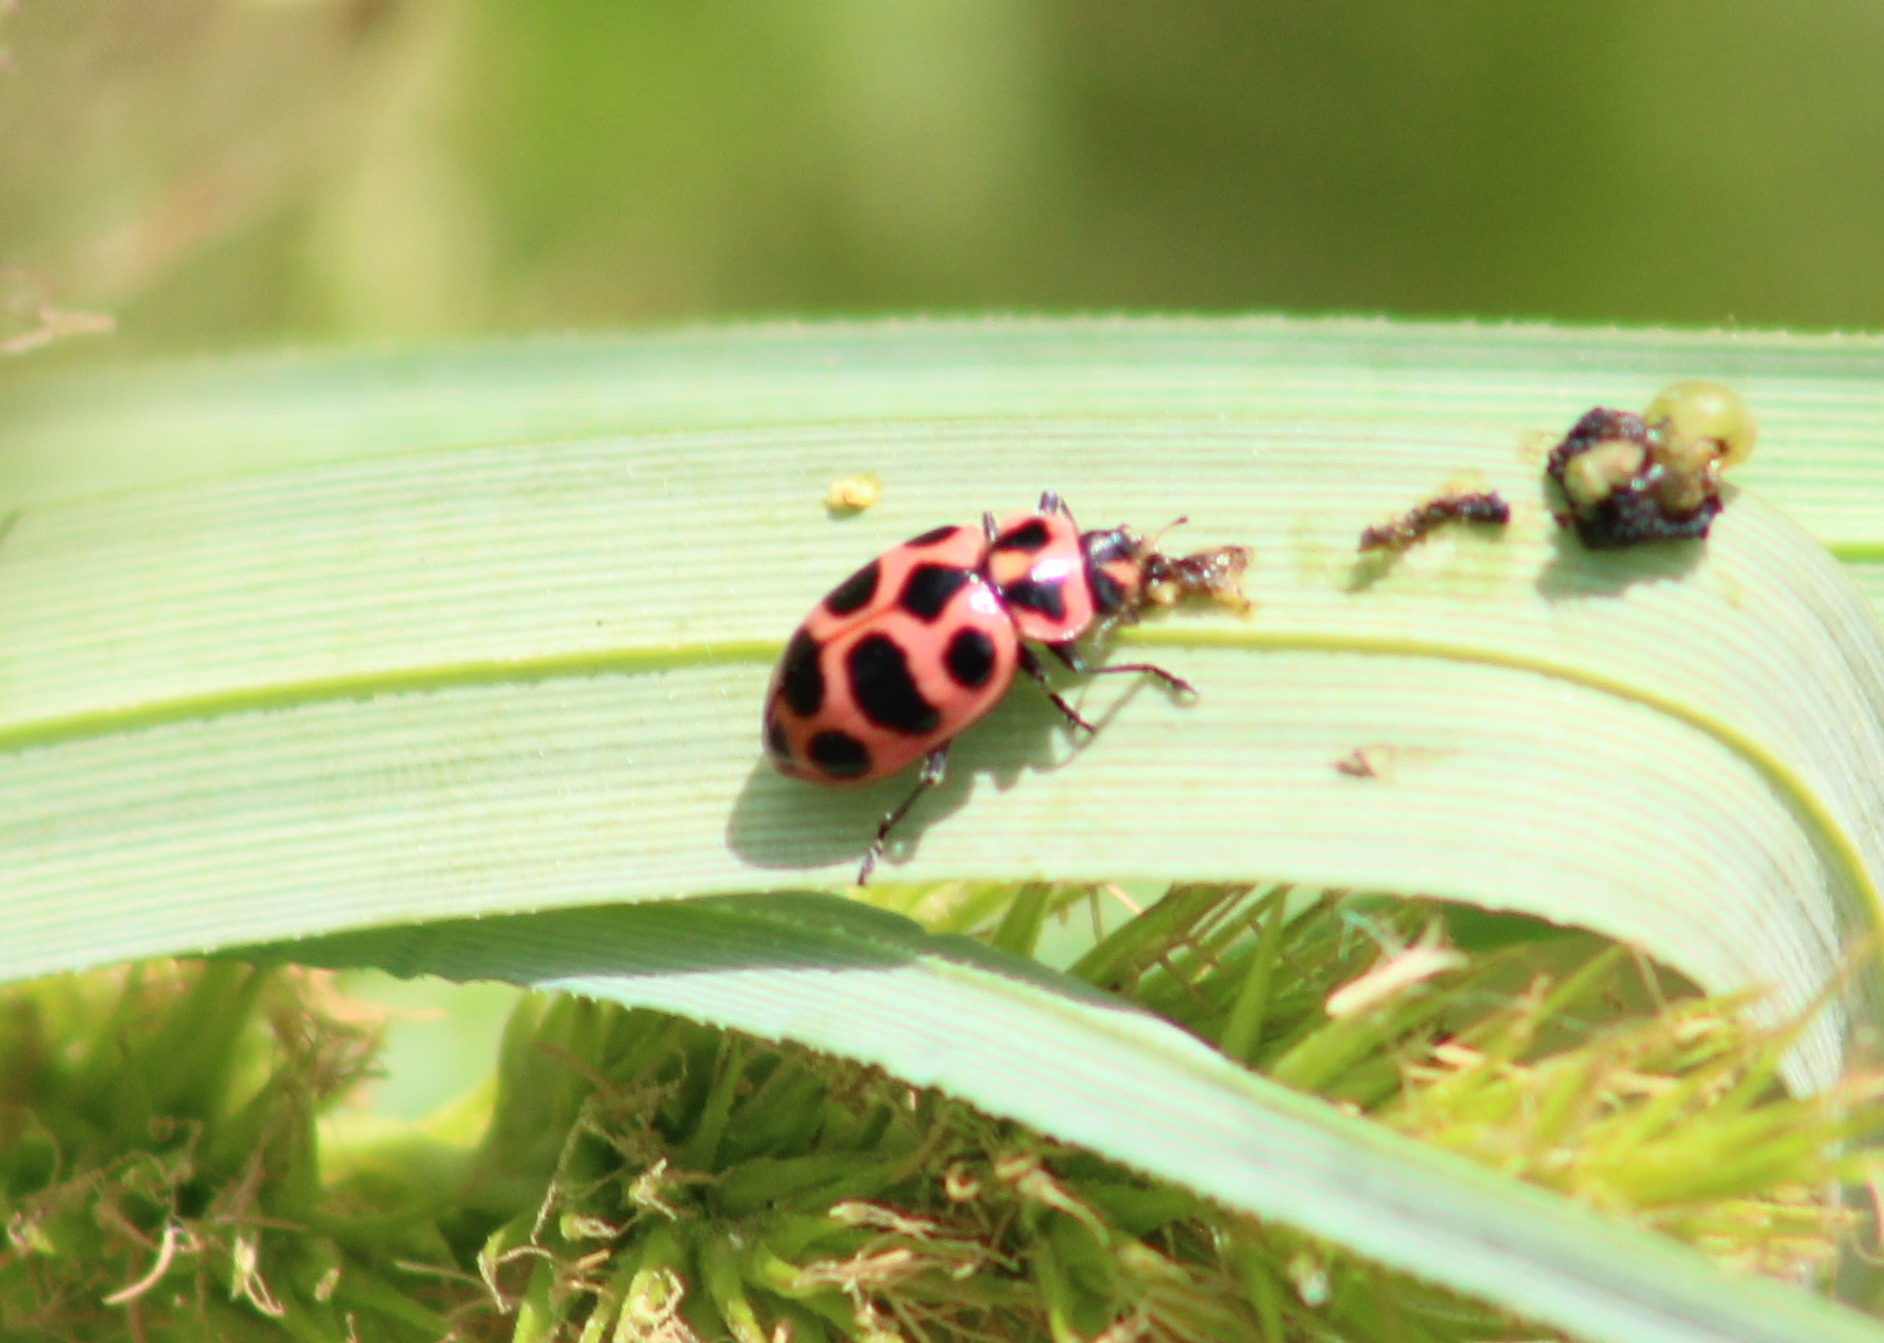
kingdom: Animalia
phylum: Arthropoda
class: Insecta
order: Coleoptera
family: Coccinellidae
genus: Coleomegilla
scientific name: Coleomegilla maculata
